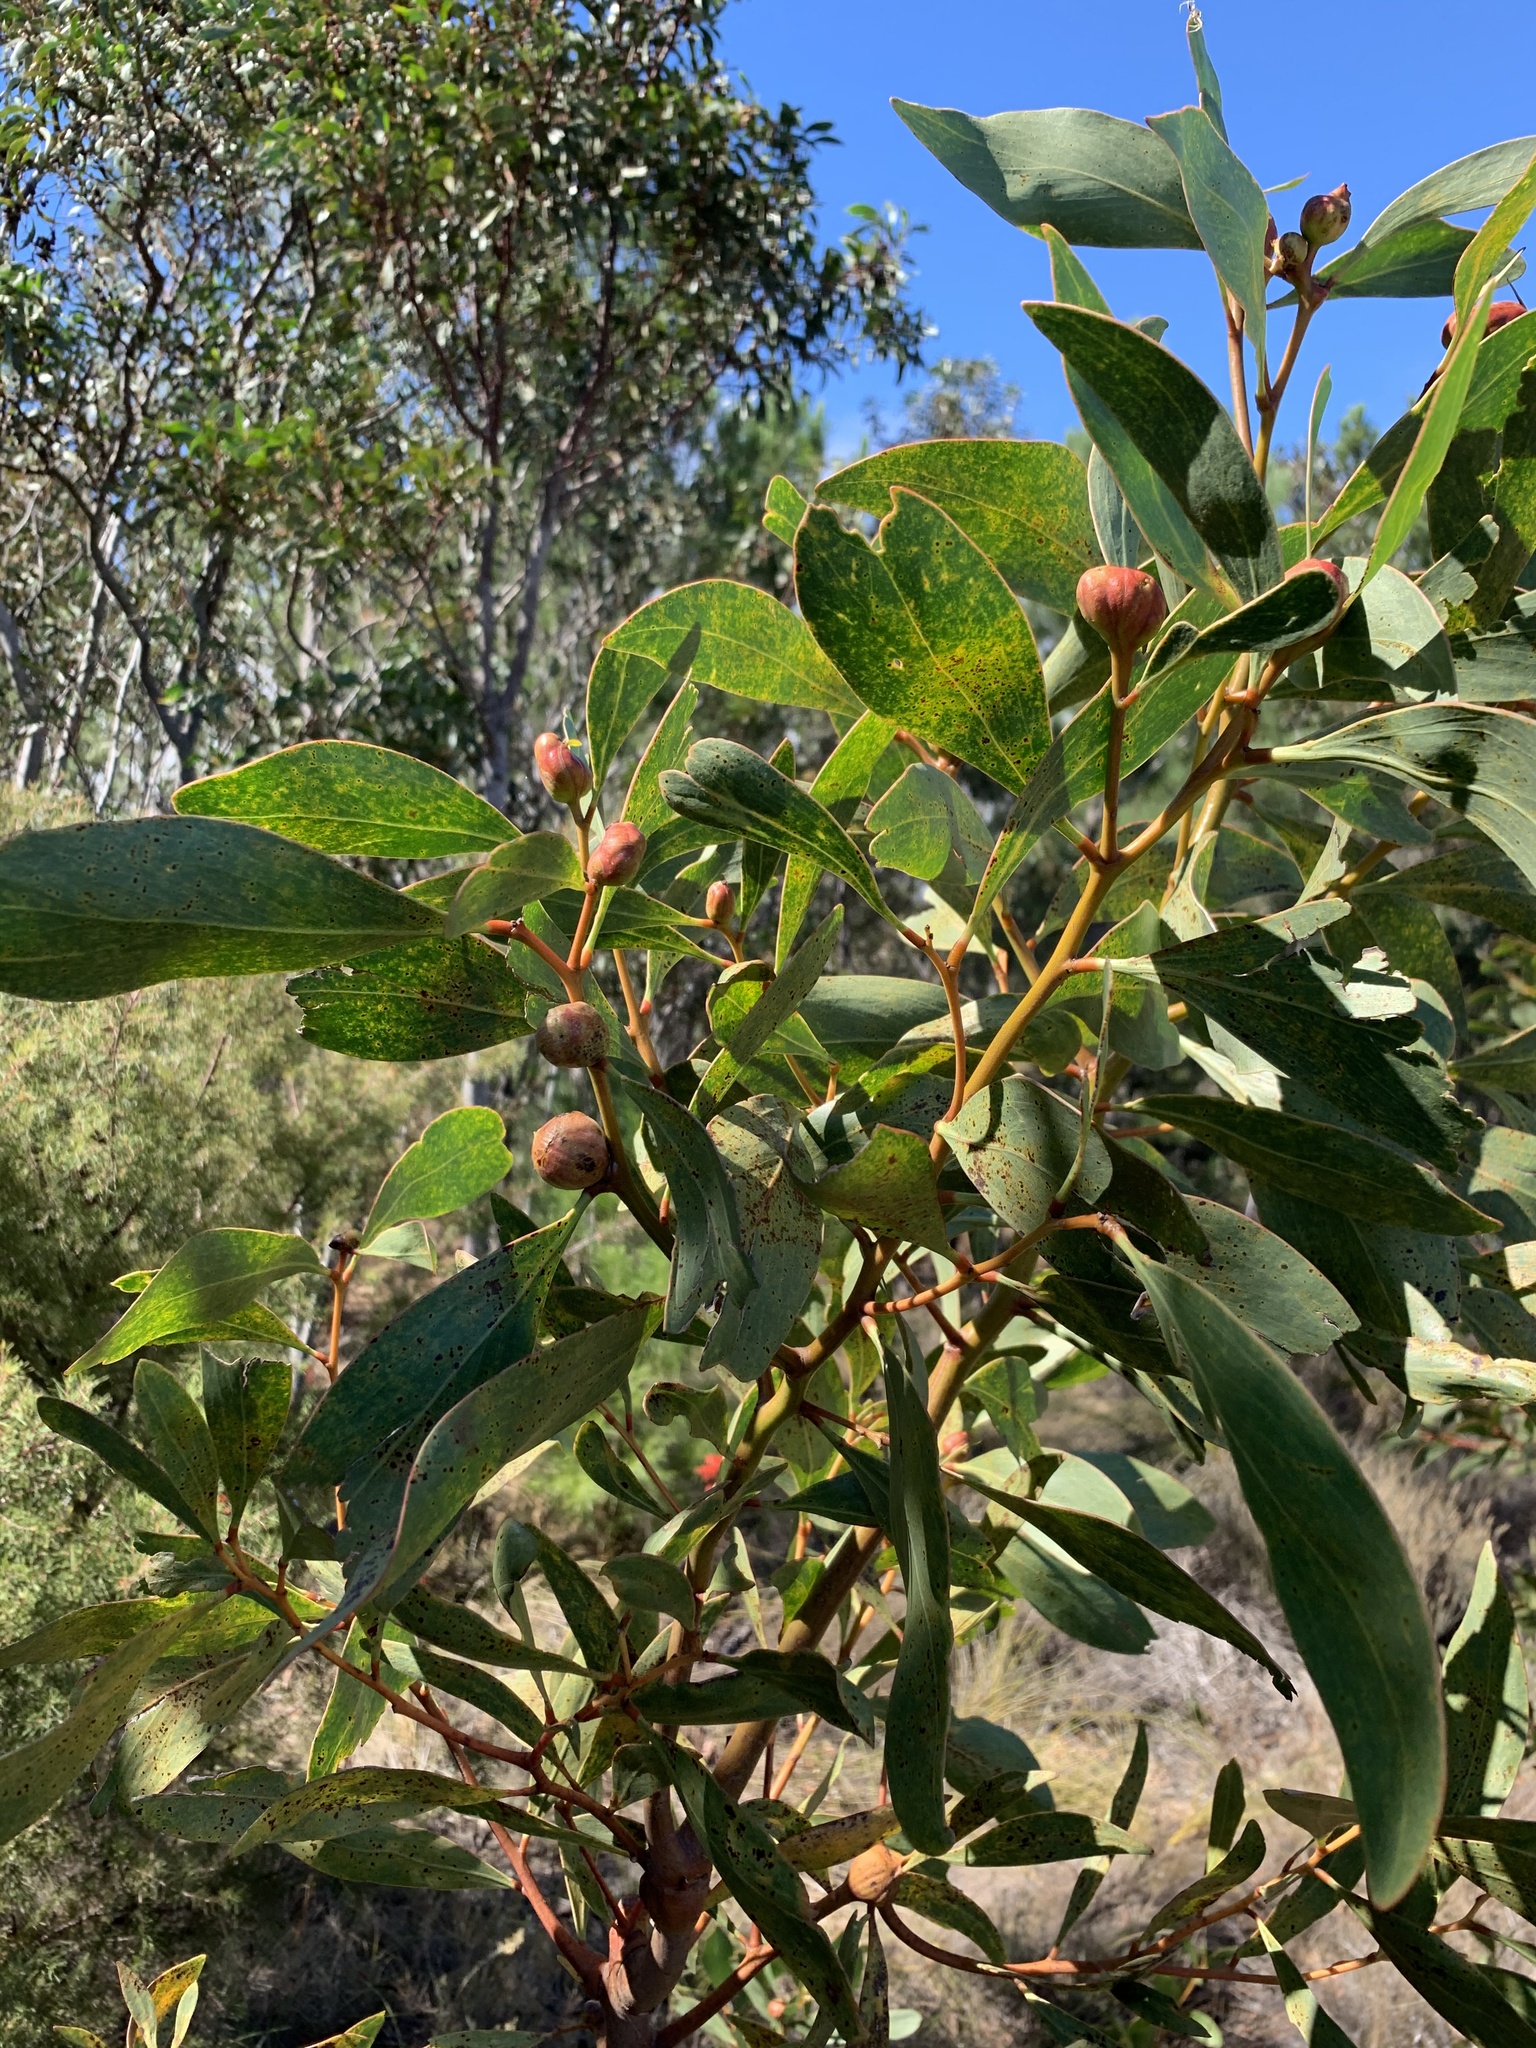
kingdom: Plantae
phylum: Tracheophyta
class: Magnoliopsida
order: Fabales
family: Fabaceae
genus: Acacia
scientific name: Acacia pycnantha
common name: Golden wattle
